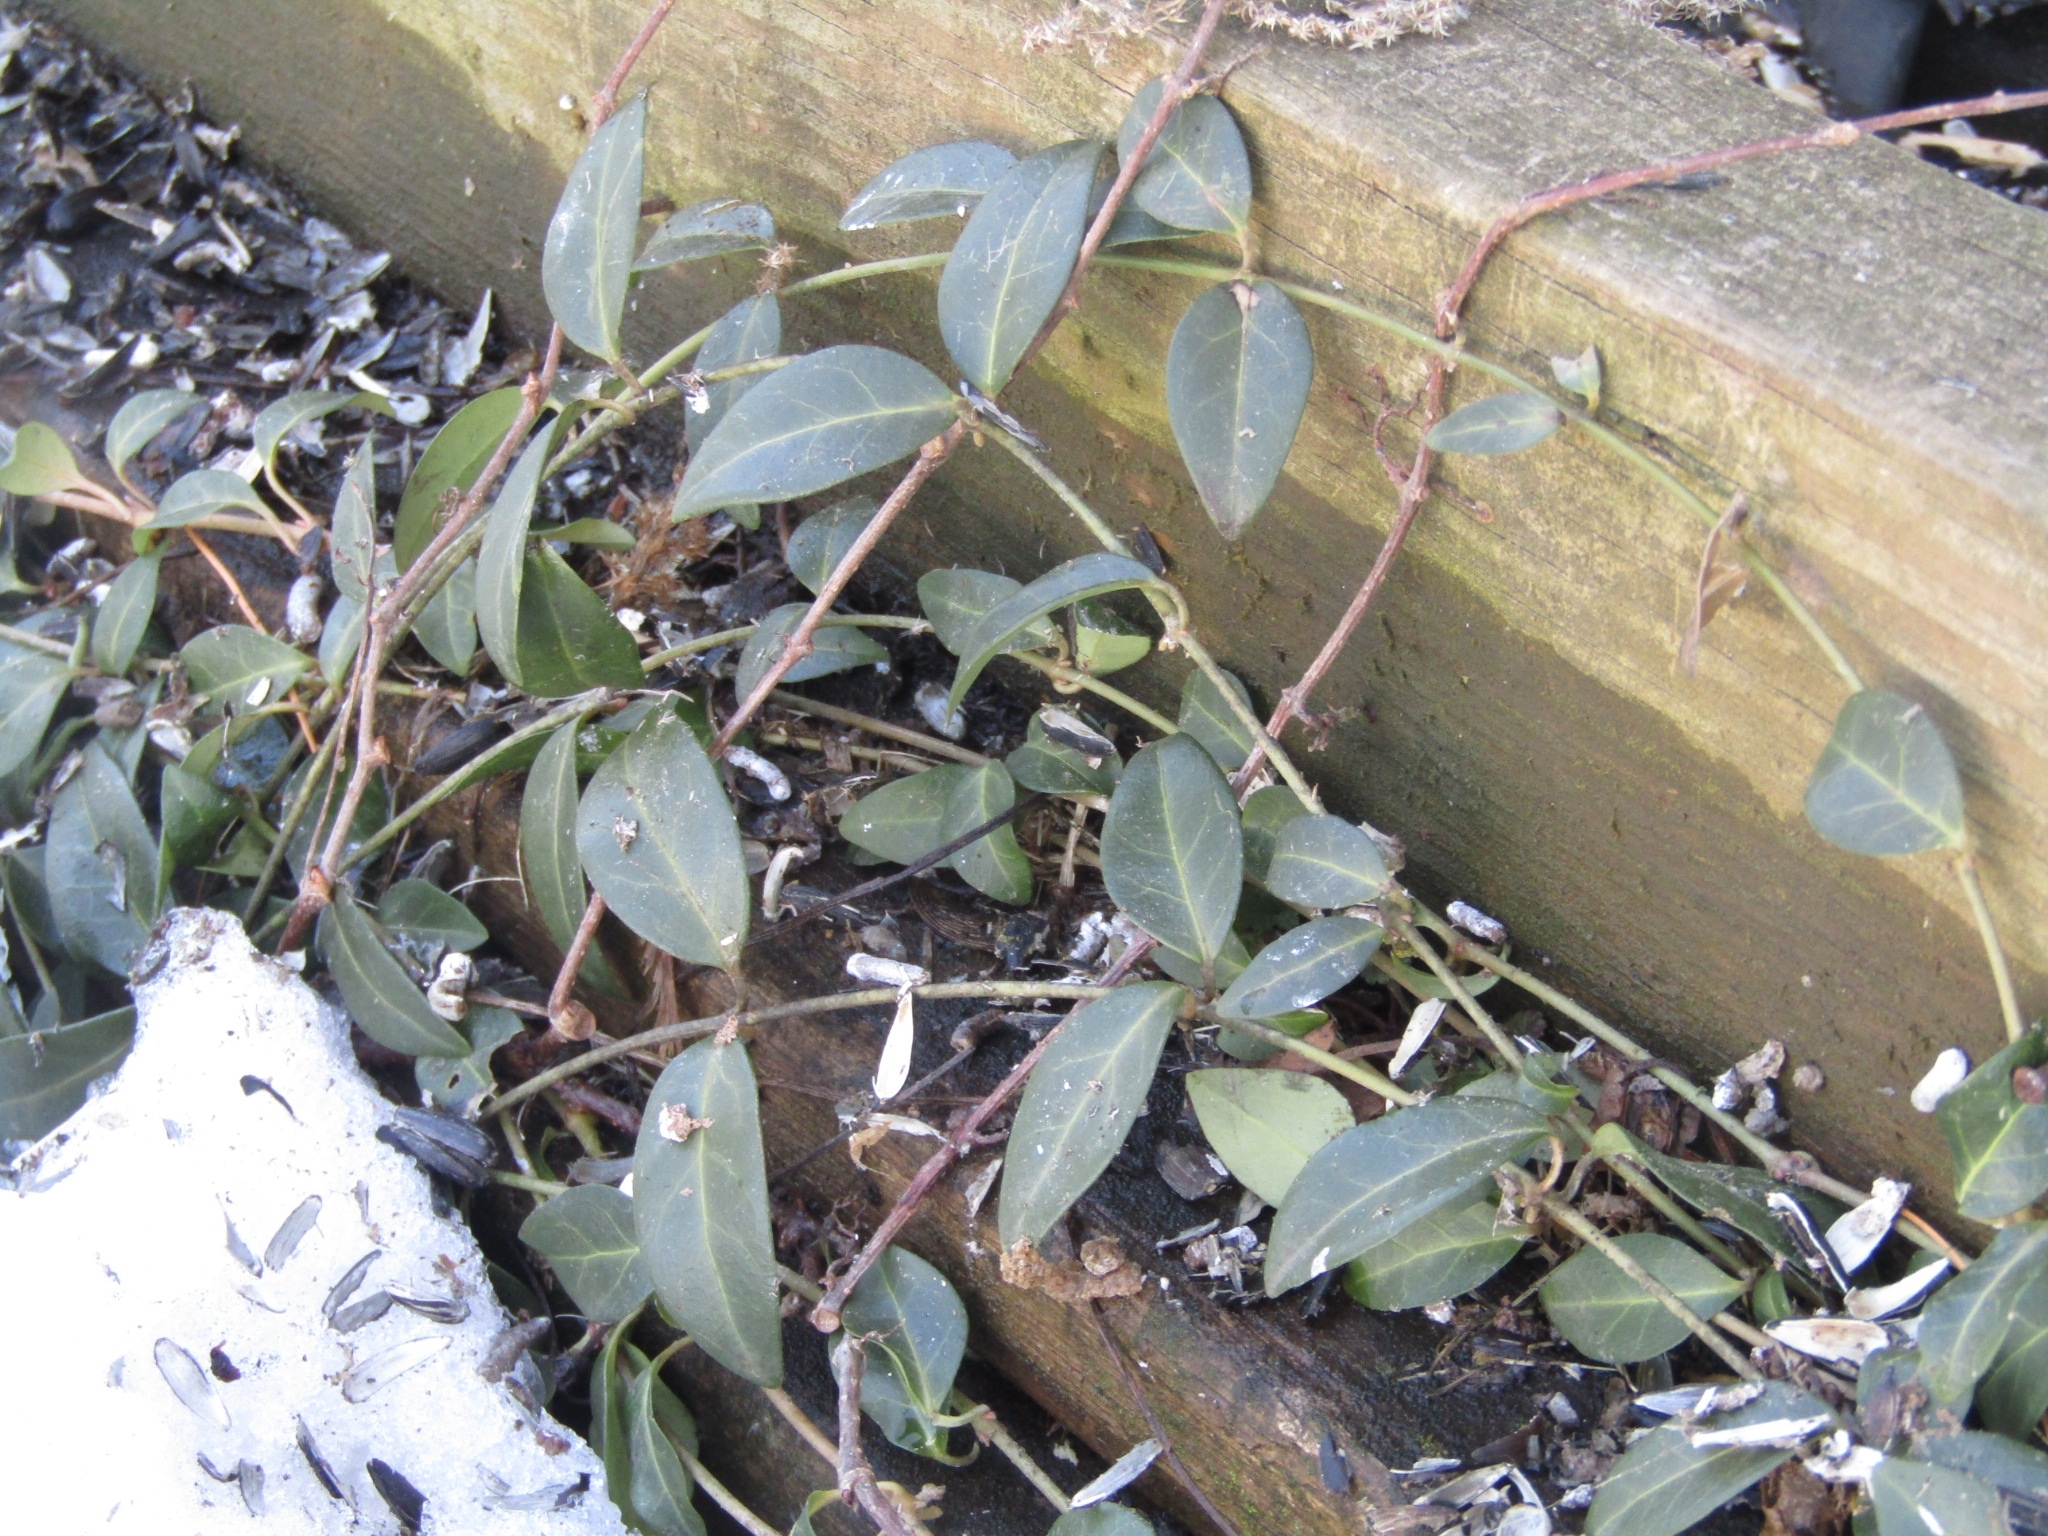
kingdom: Plantae
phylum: Tracheophyta
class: Magnoliopsida
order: Gentianales
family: Apocynaceae
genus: Vinca
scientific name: Vinca minor
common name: Lesser periwinkle
